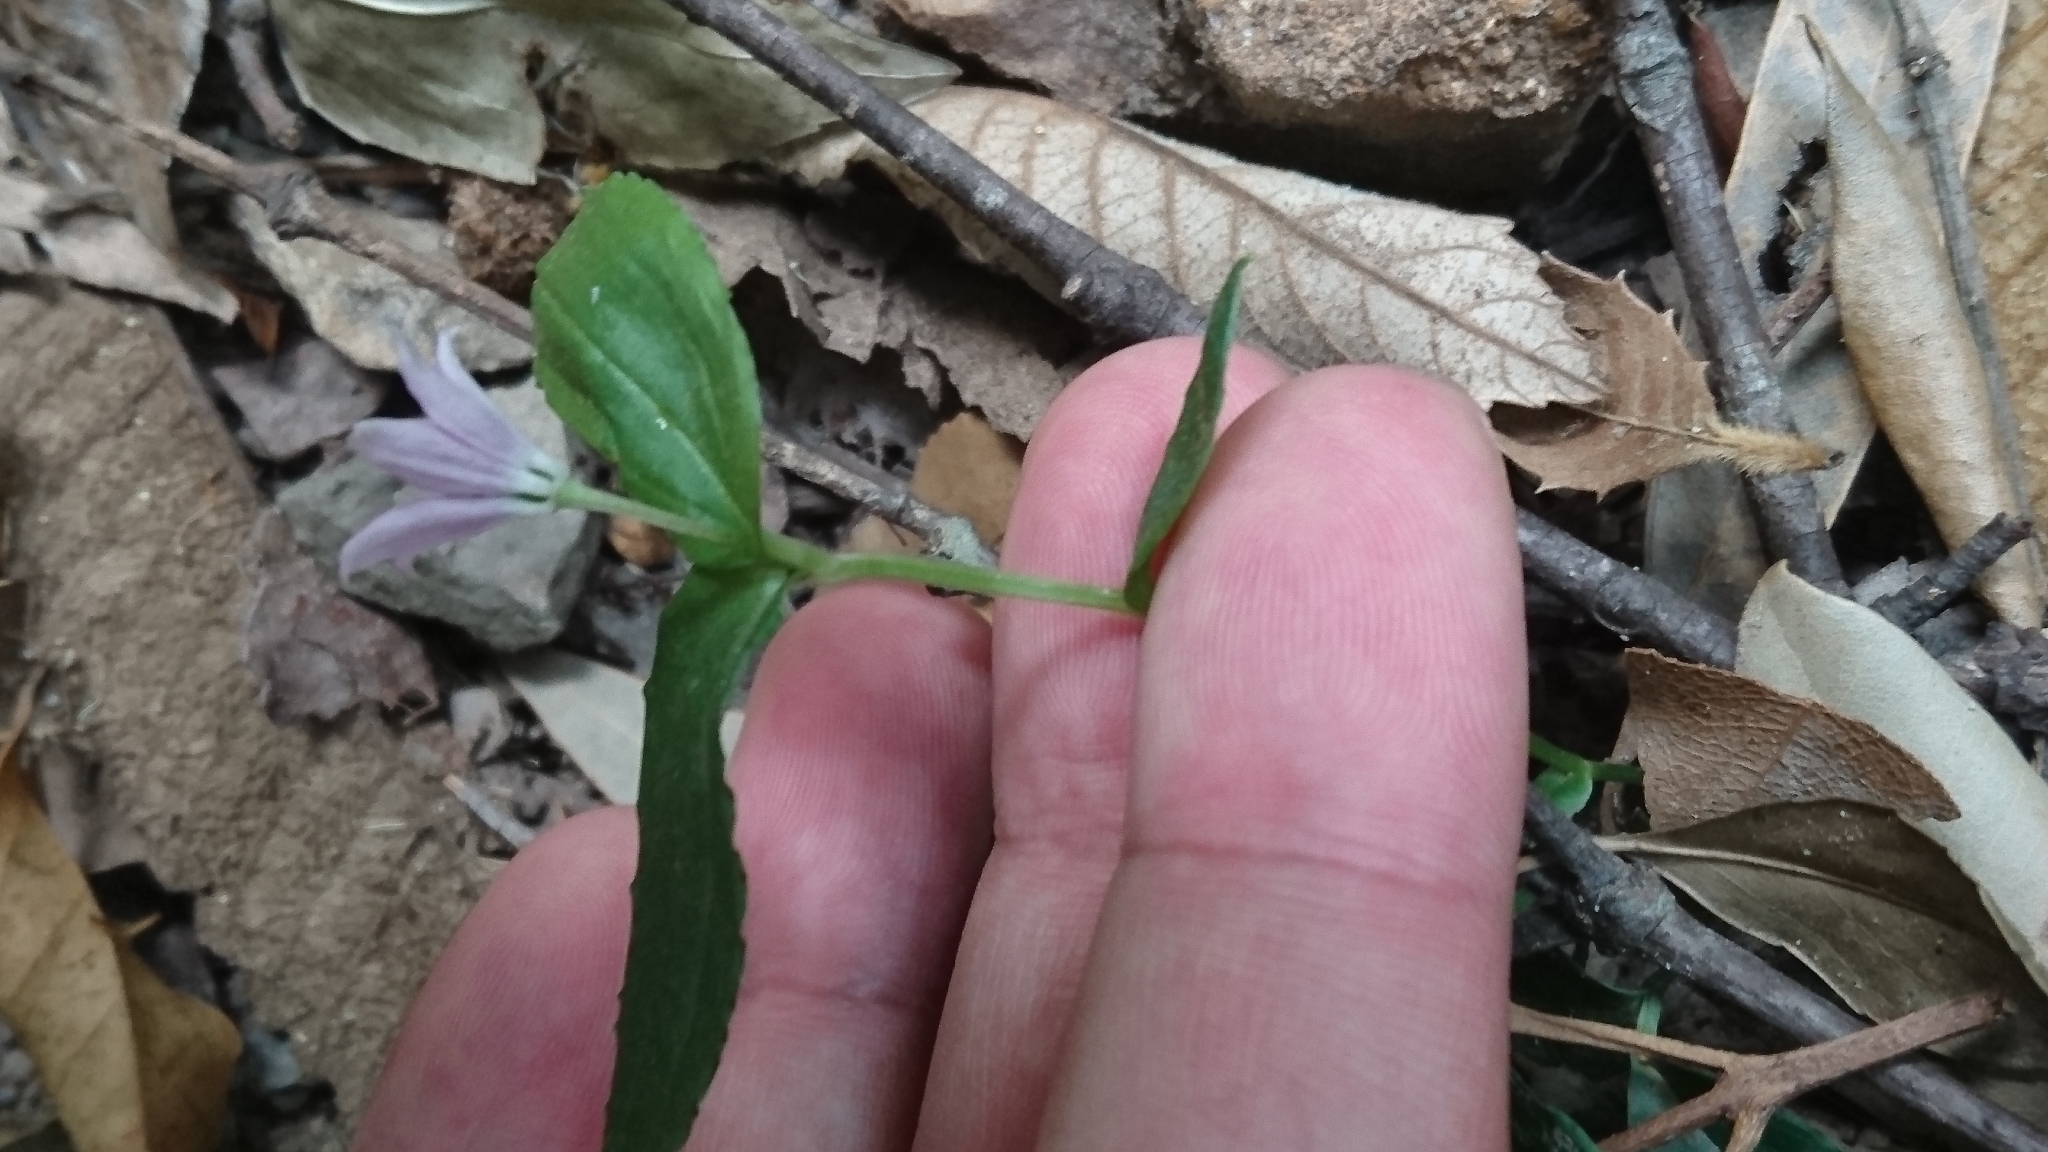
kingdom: Plantae
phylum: Tracheophyta
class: Liliopsida
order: Liliales
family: Colchicaceae
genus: Schelhammera
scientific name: Schelhammera undulata
